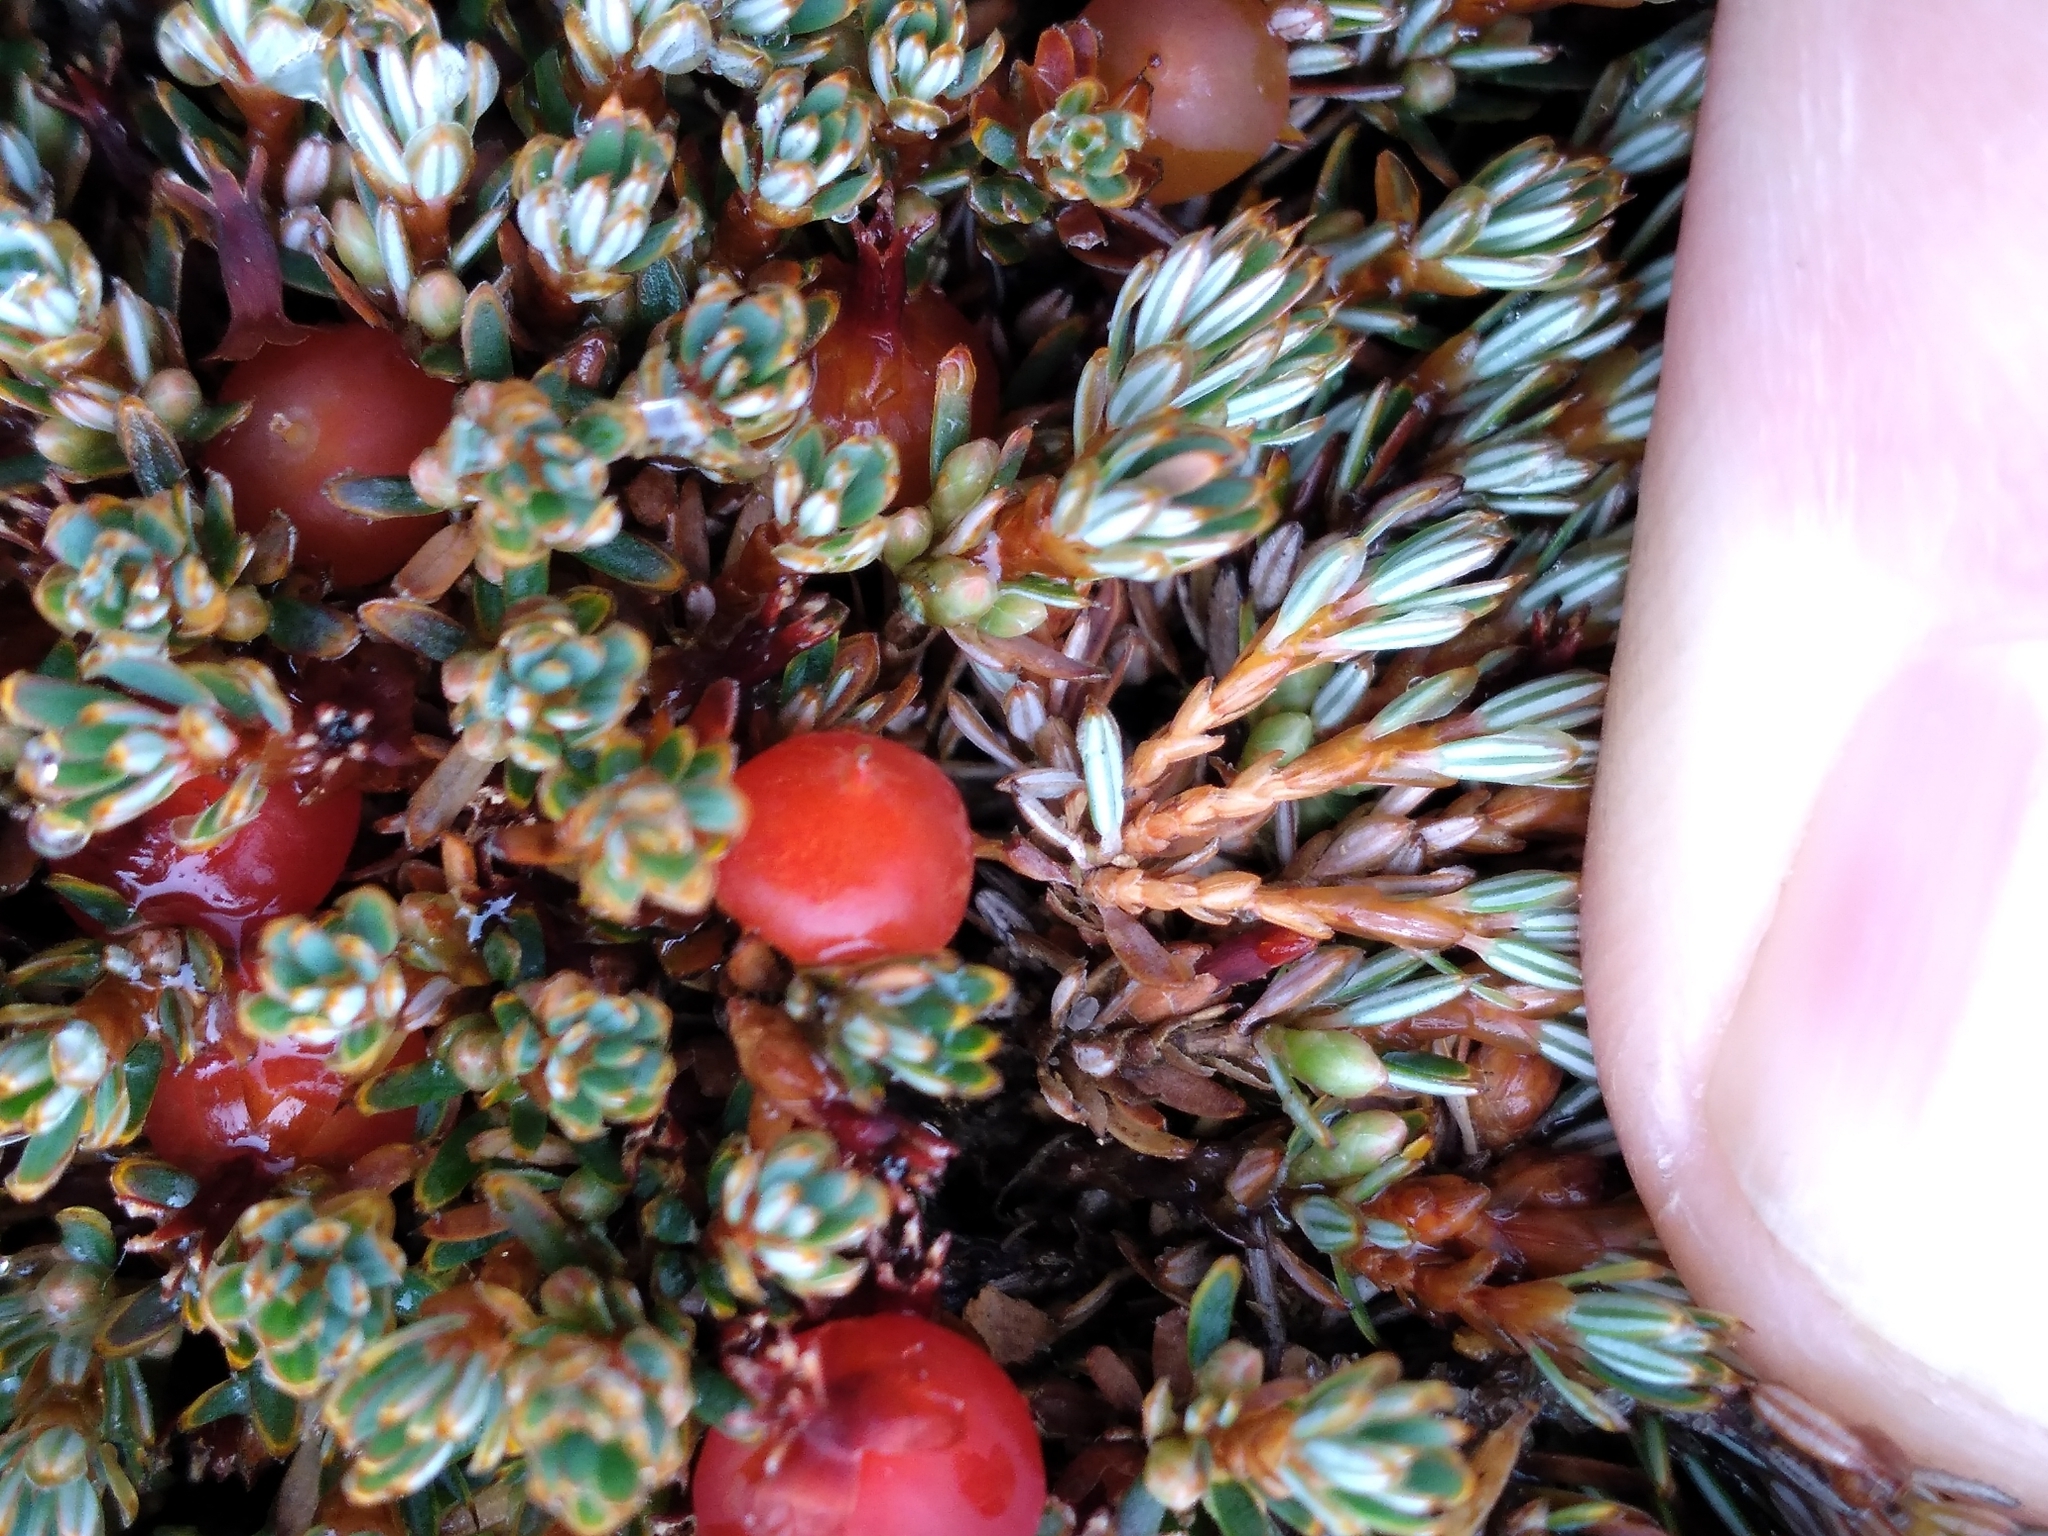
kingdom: Plantae
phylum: Tracheophyta
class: Magnoliopsida
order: Ericales
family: Ericaceae
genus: Montitega
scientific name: Montitega dealbata
